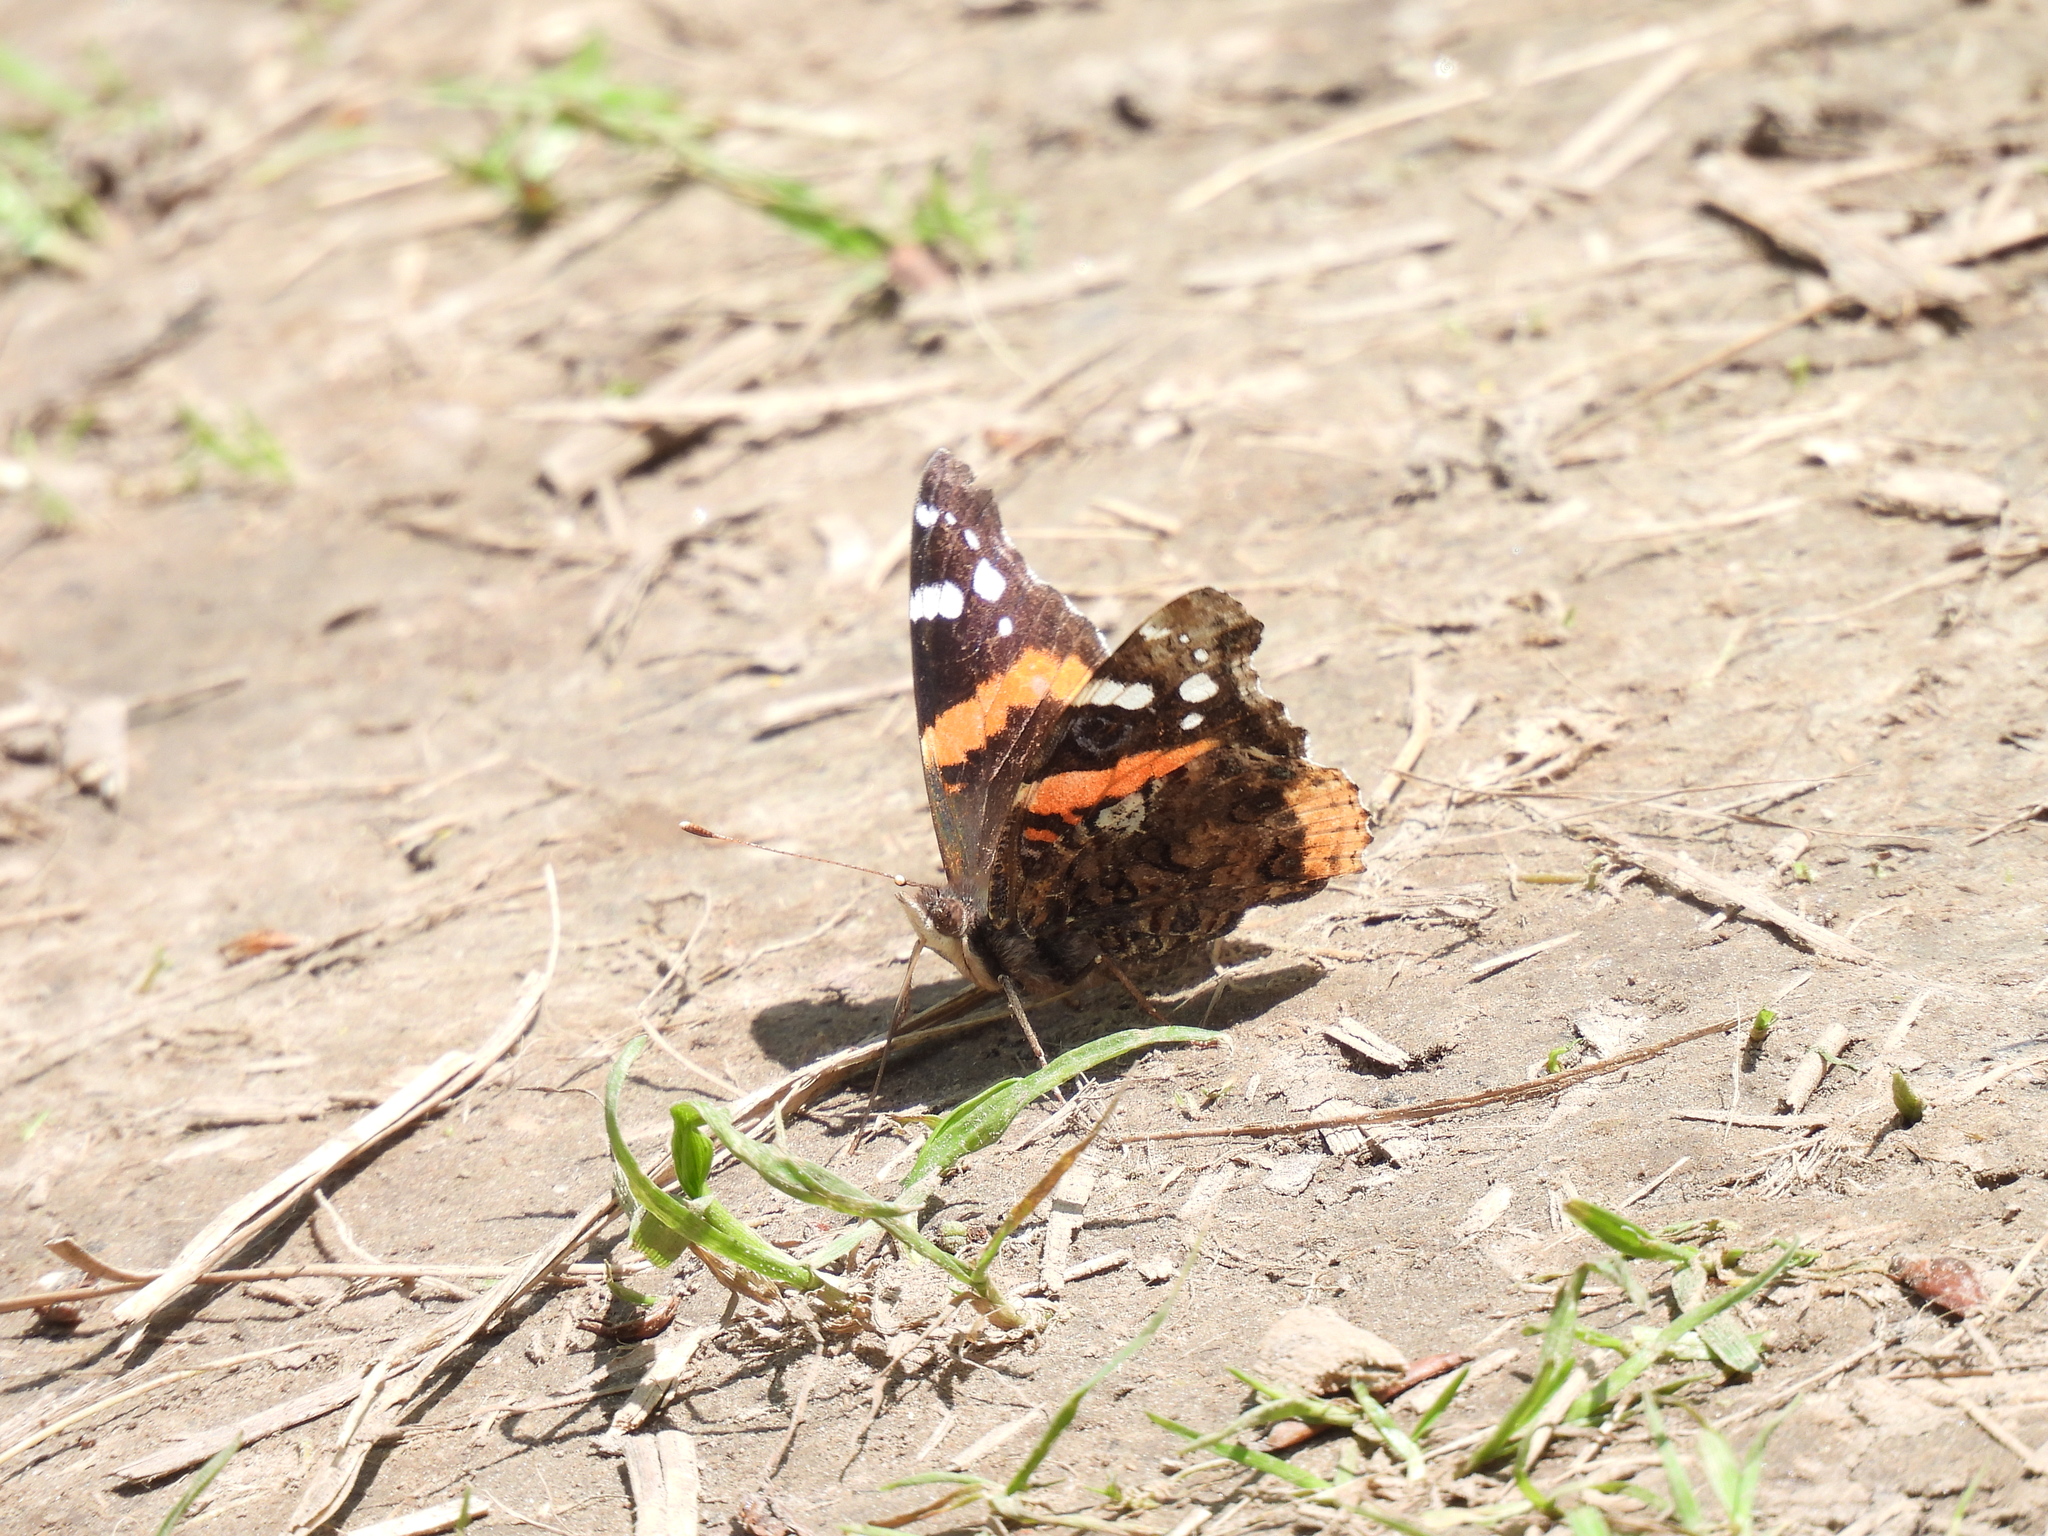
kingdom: Animalia
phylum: Arthropoda
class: Insecta
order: Lepidoptera
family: Nymphalidae
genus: Vanessa
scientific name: Vanessa atalanta
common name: Red admiral
